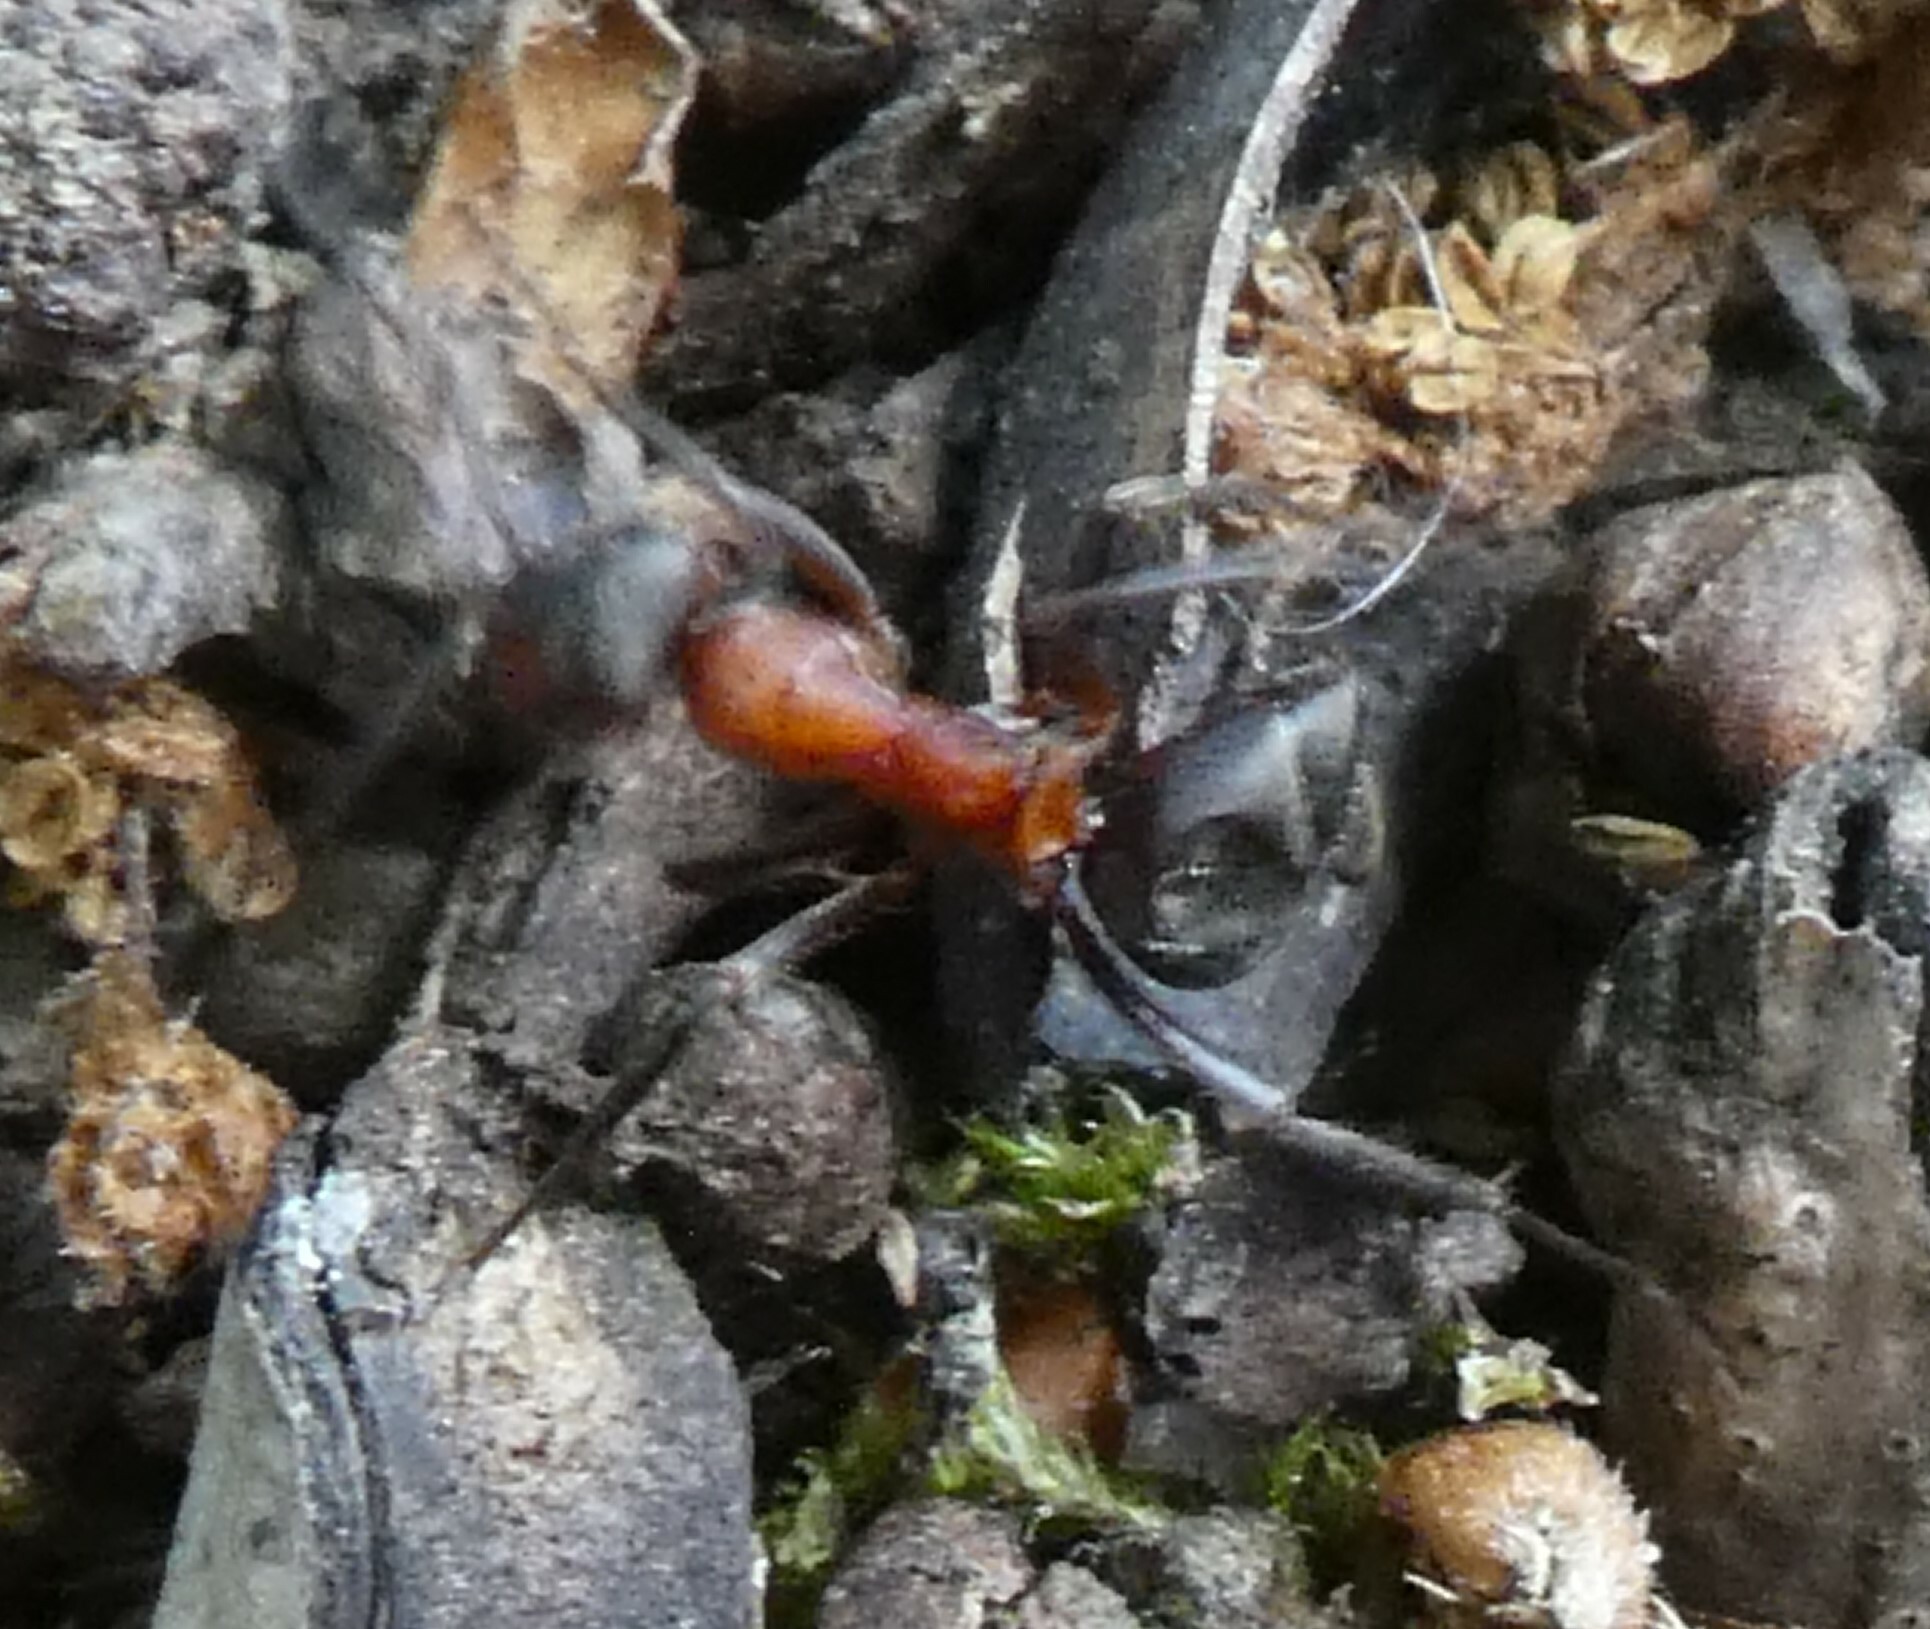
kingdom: Animalia
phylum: Arthropoda
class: Insecta
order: Hymenoptera
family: Formicidae
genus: Formica
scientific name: Formica
